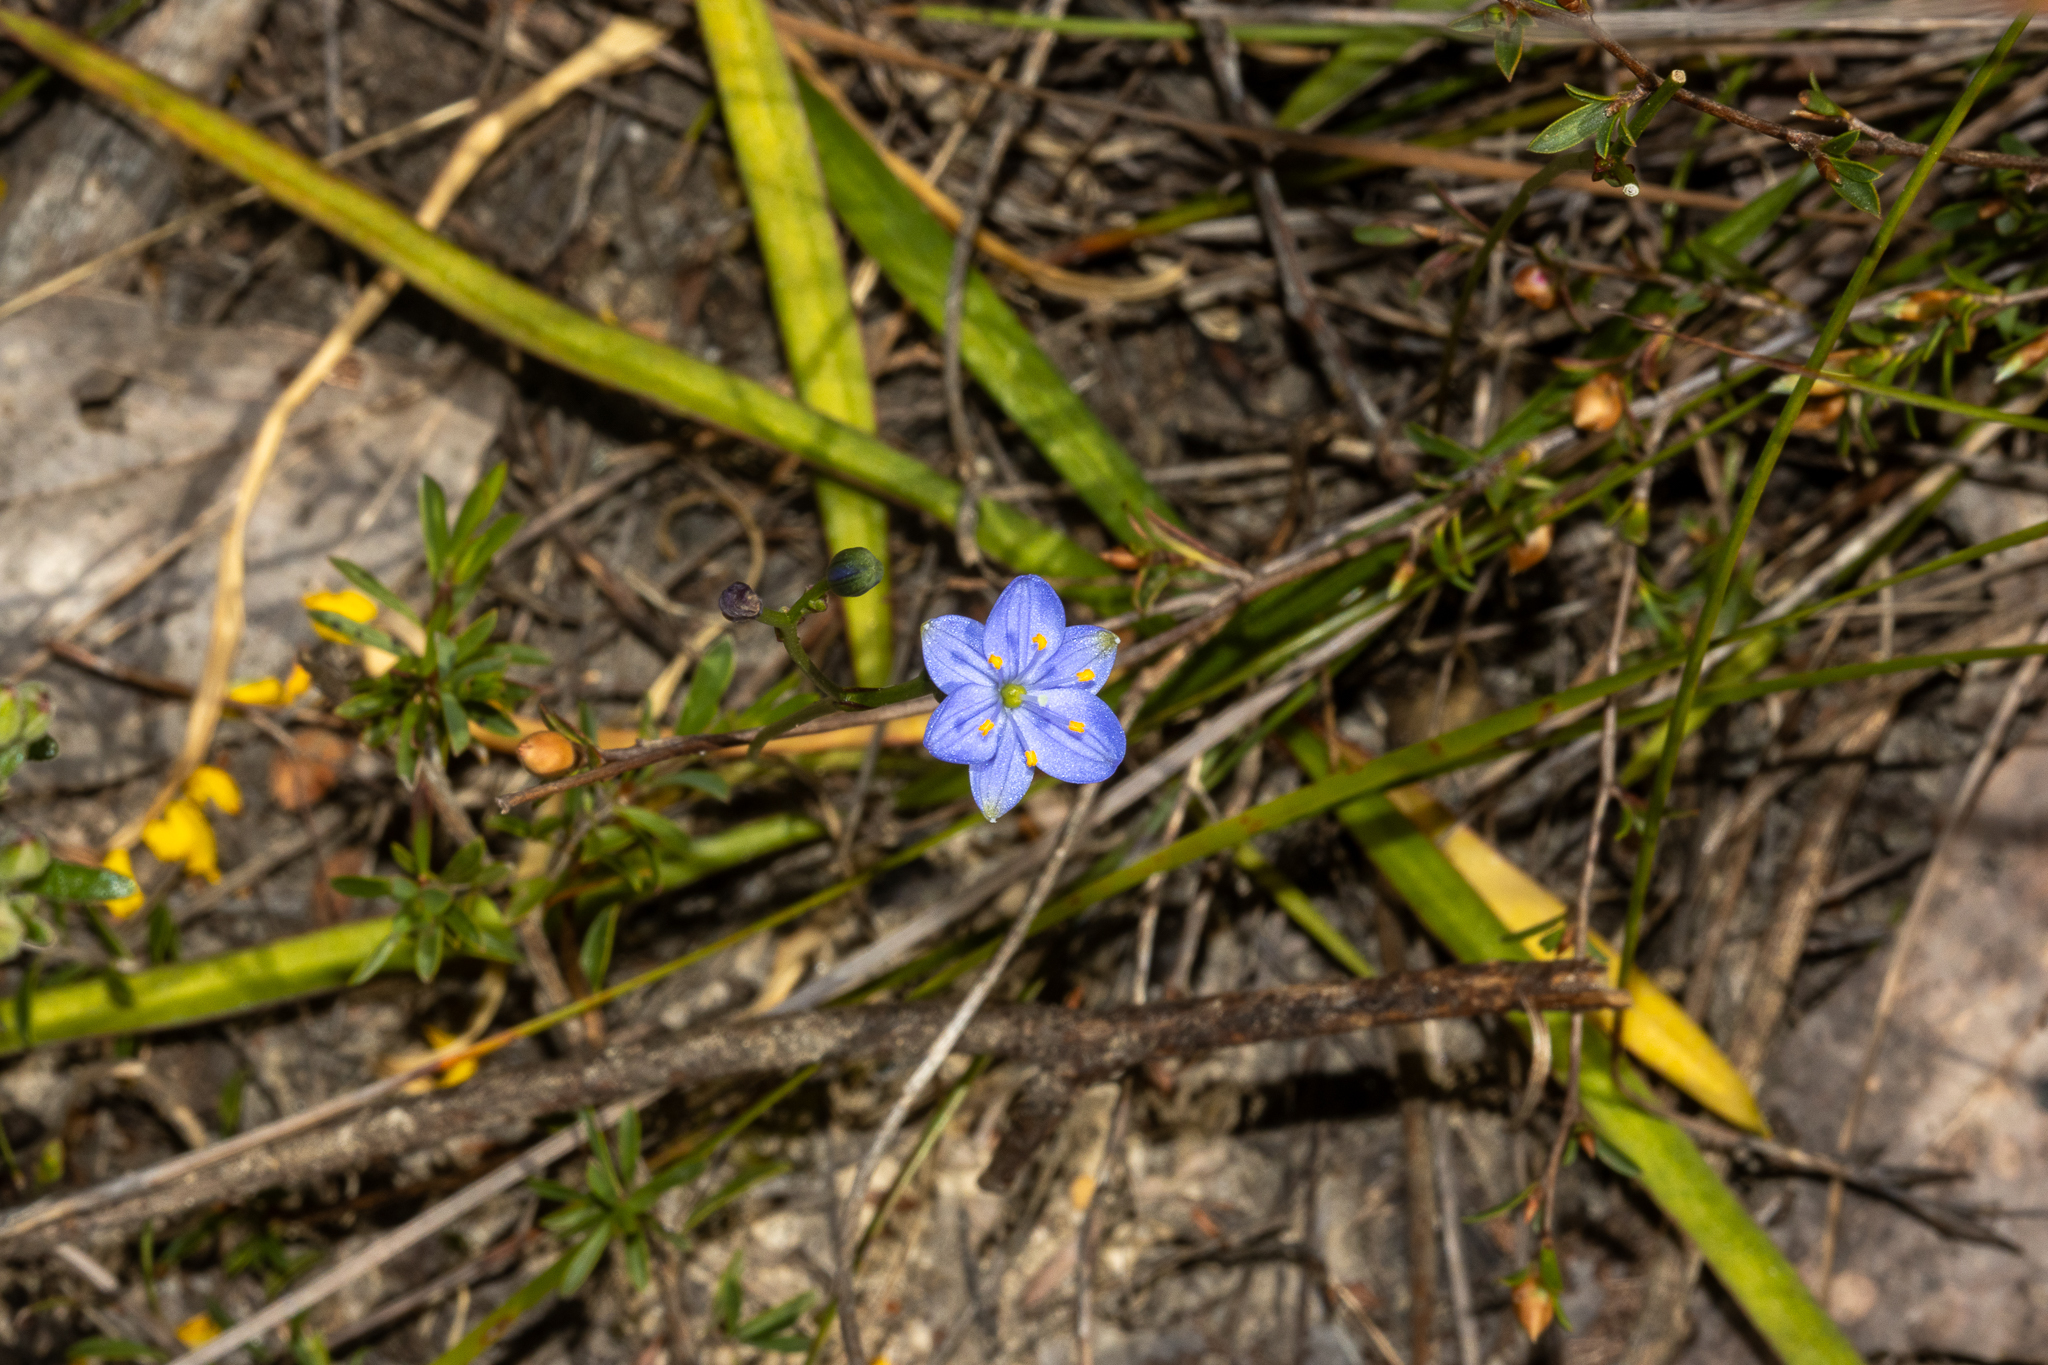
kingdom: Plantae
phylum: Tracheophyta
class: Liliopsida
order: Asparagales
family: Asphodelaceae
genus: Chamaescilla
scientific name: Chamaescilla corymbosa
